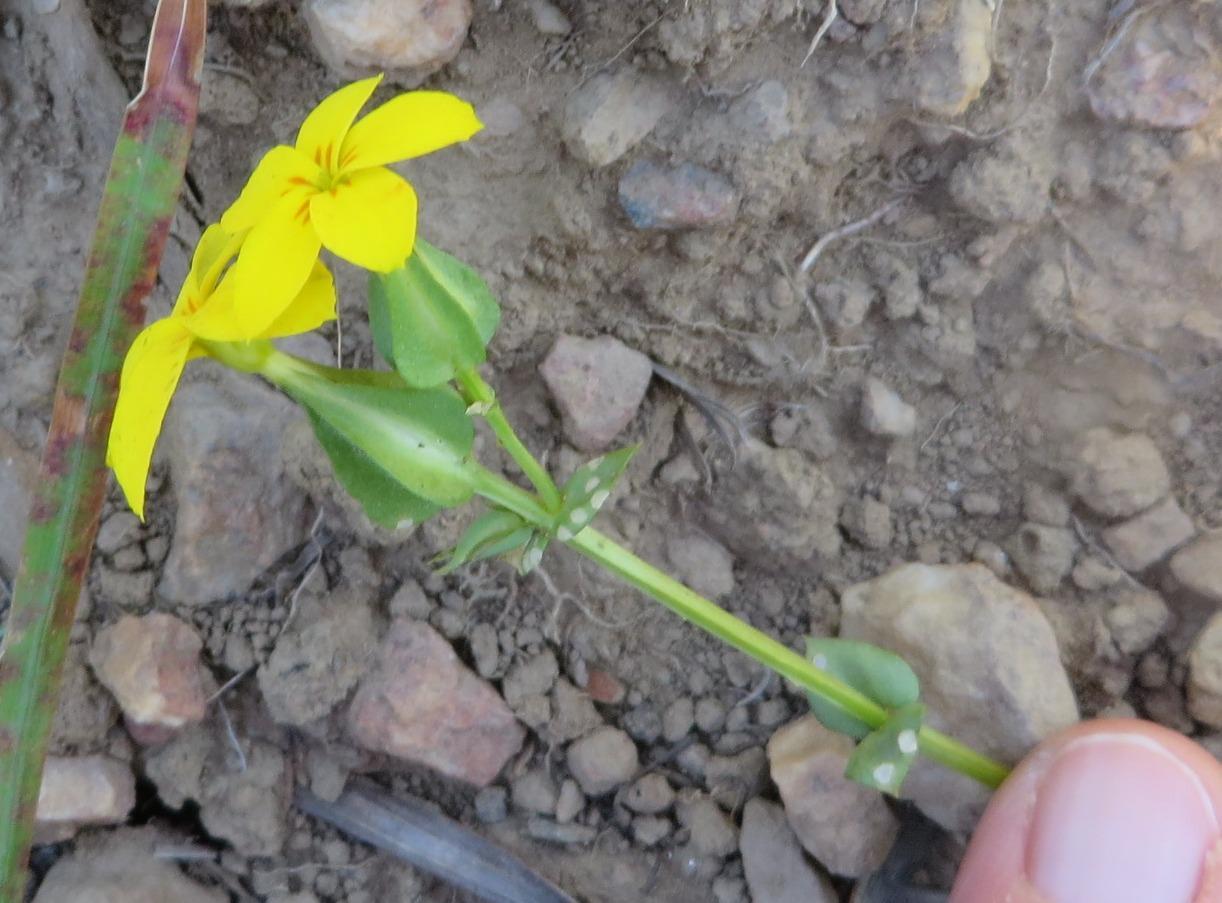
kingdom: Plantae
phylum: Tracheophyta
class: Magnoliopsida
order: Gentianales
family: Gentianaceae
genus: Sebaea
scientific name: Sebaea exacoides
